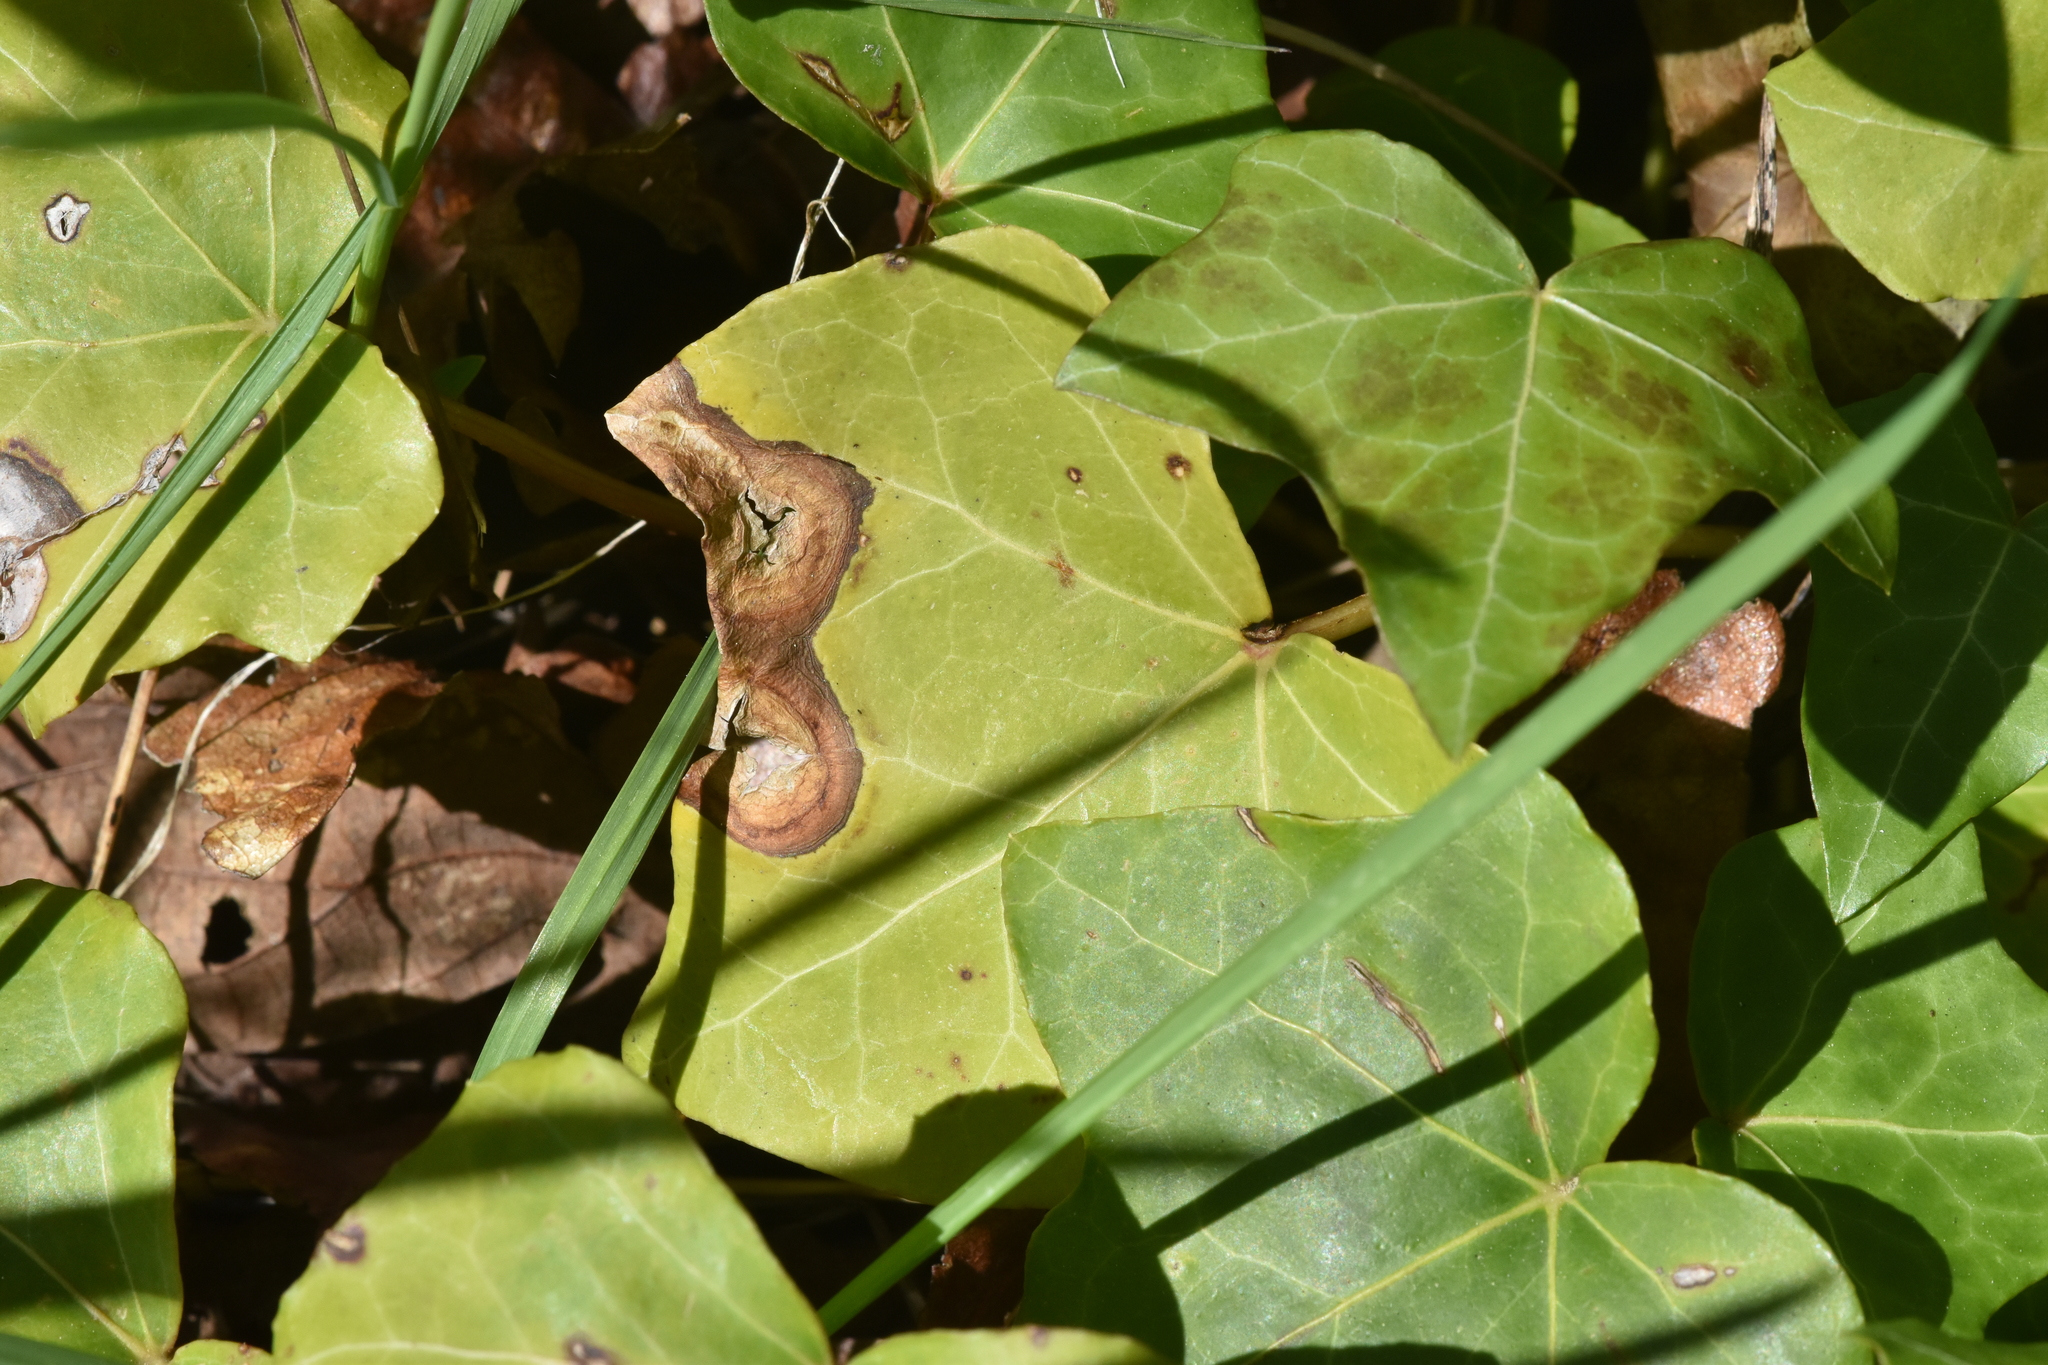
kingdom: Plantae
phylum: Tracheophyta
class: Magnoliopsida
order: Apiales
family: Araliaceae
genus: Hedera
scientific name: Hedera helix
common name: Ivy
